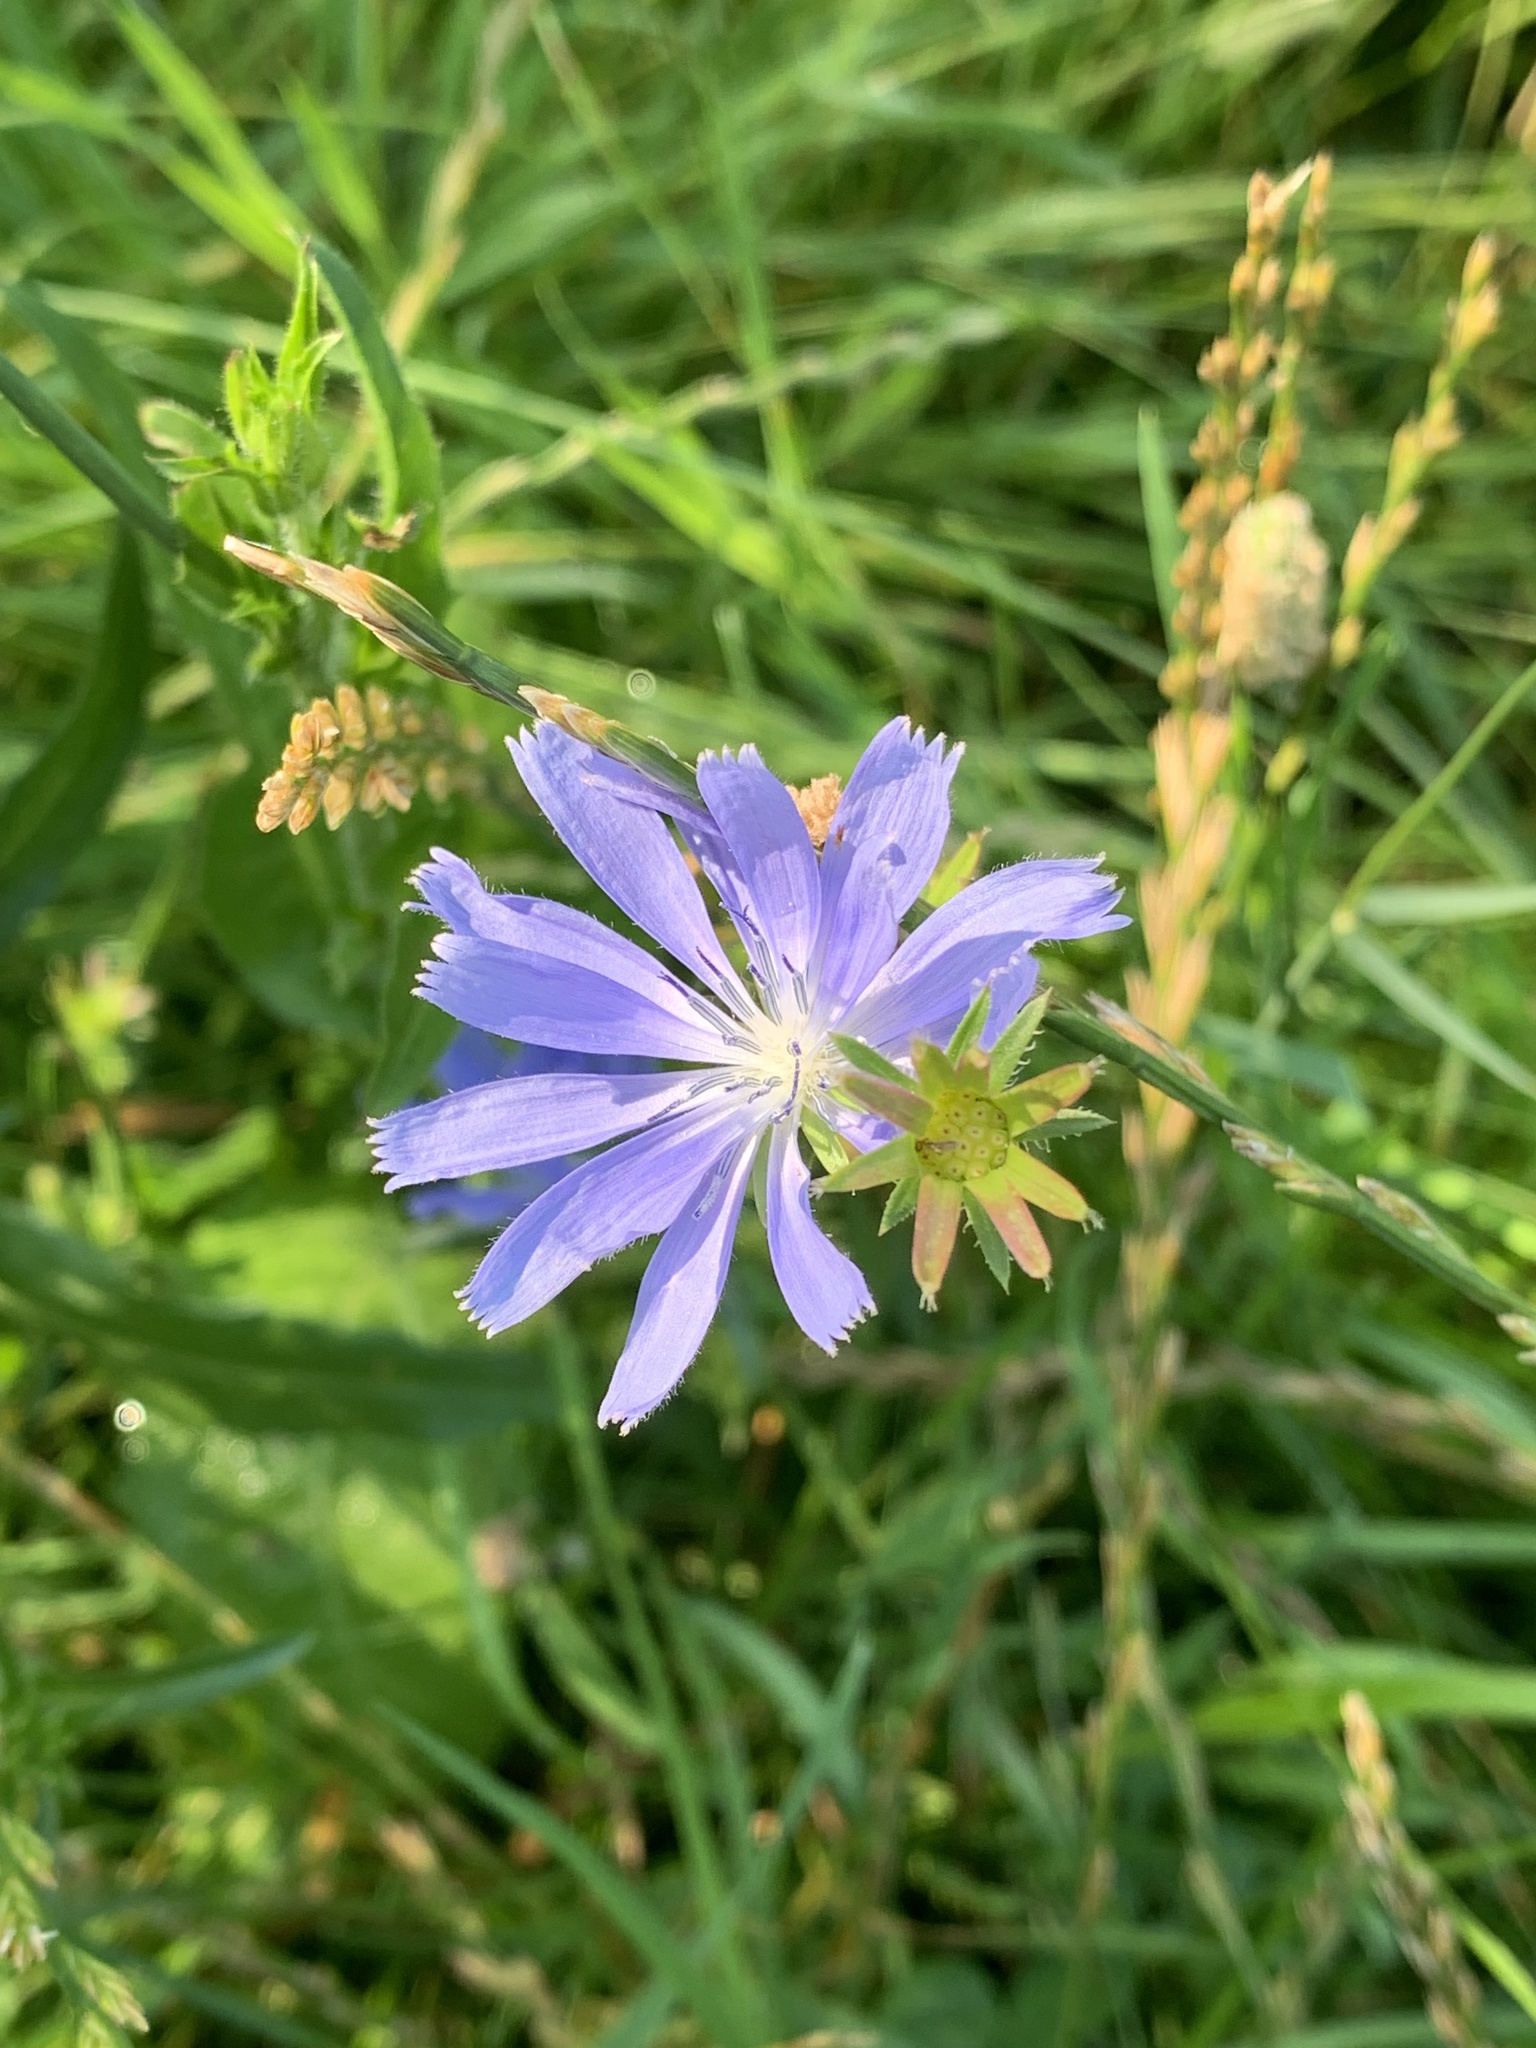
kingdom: Plantae
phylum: Tracheophyta
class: Magnoliopsida
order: Asterales
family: Asteraceae
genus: Cichorium
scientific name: Cichorium intybus
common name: Chicory
